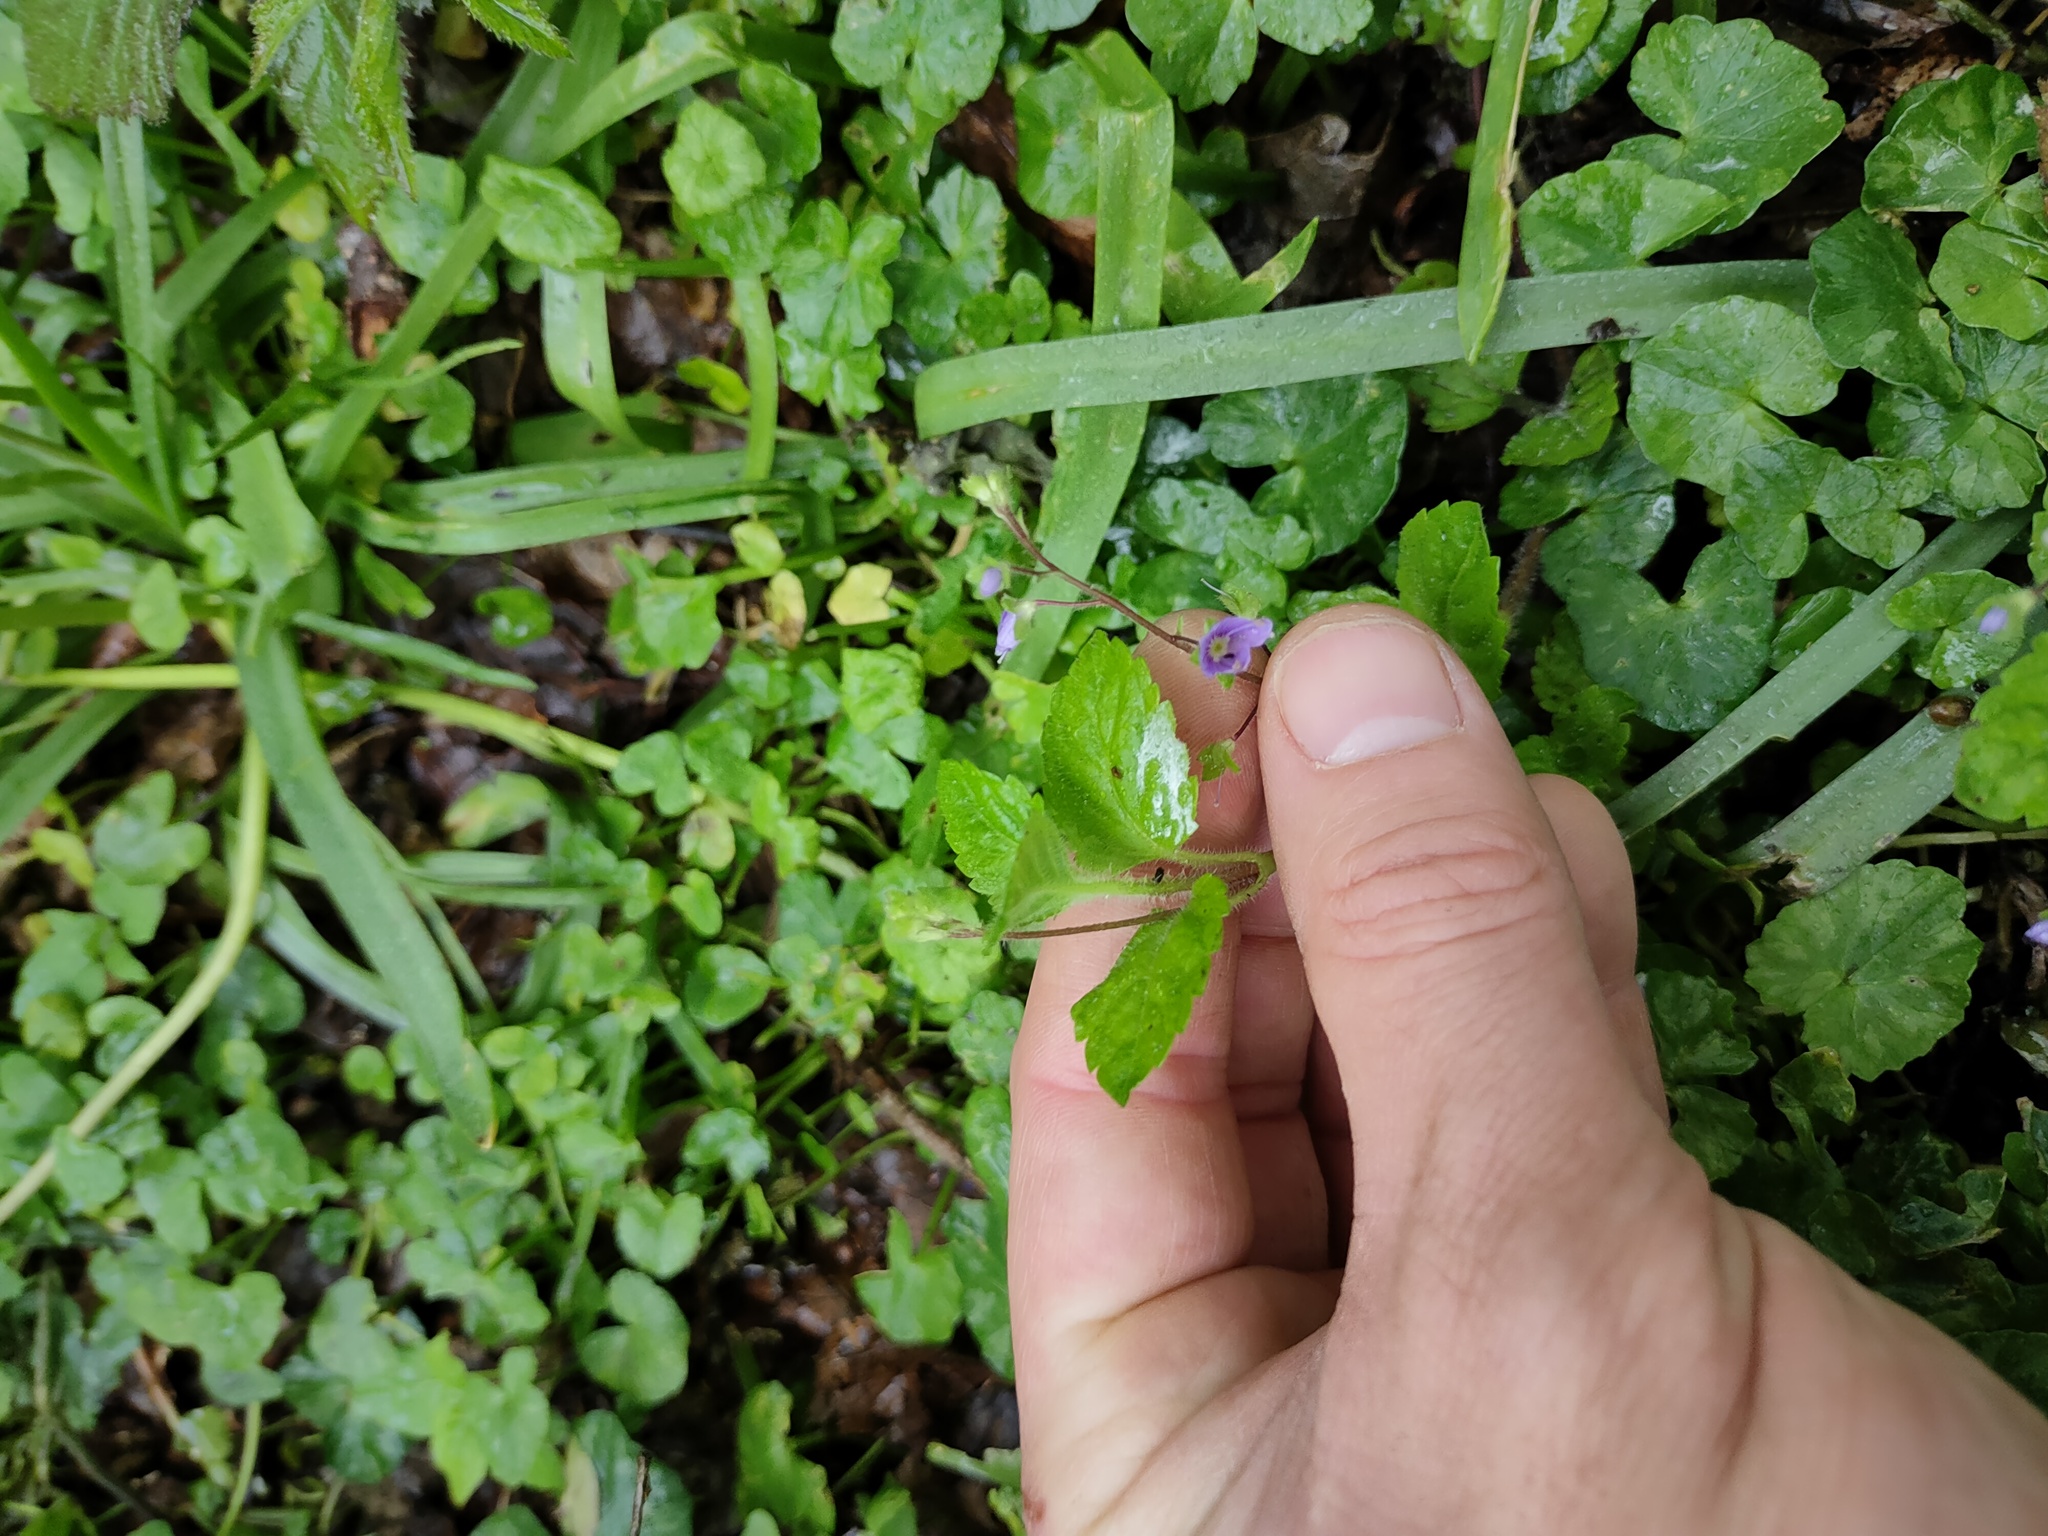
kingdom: Plantae
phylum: Tracheophyta
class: Magnoliopsida
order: Lamiales
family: Plantaginaceae
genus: Veronica
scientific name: Veronica montana
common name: Wood speedwell
